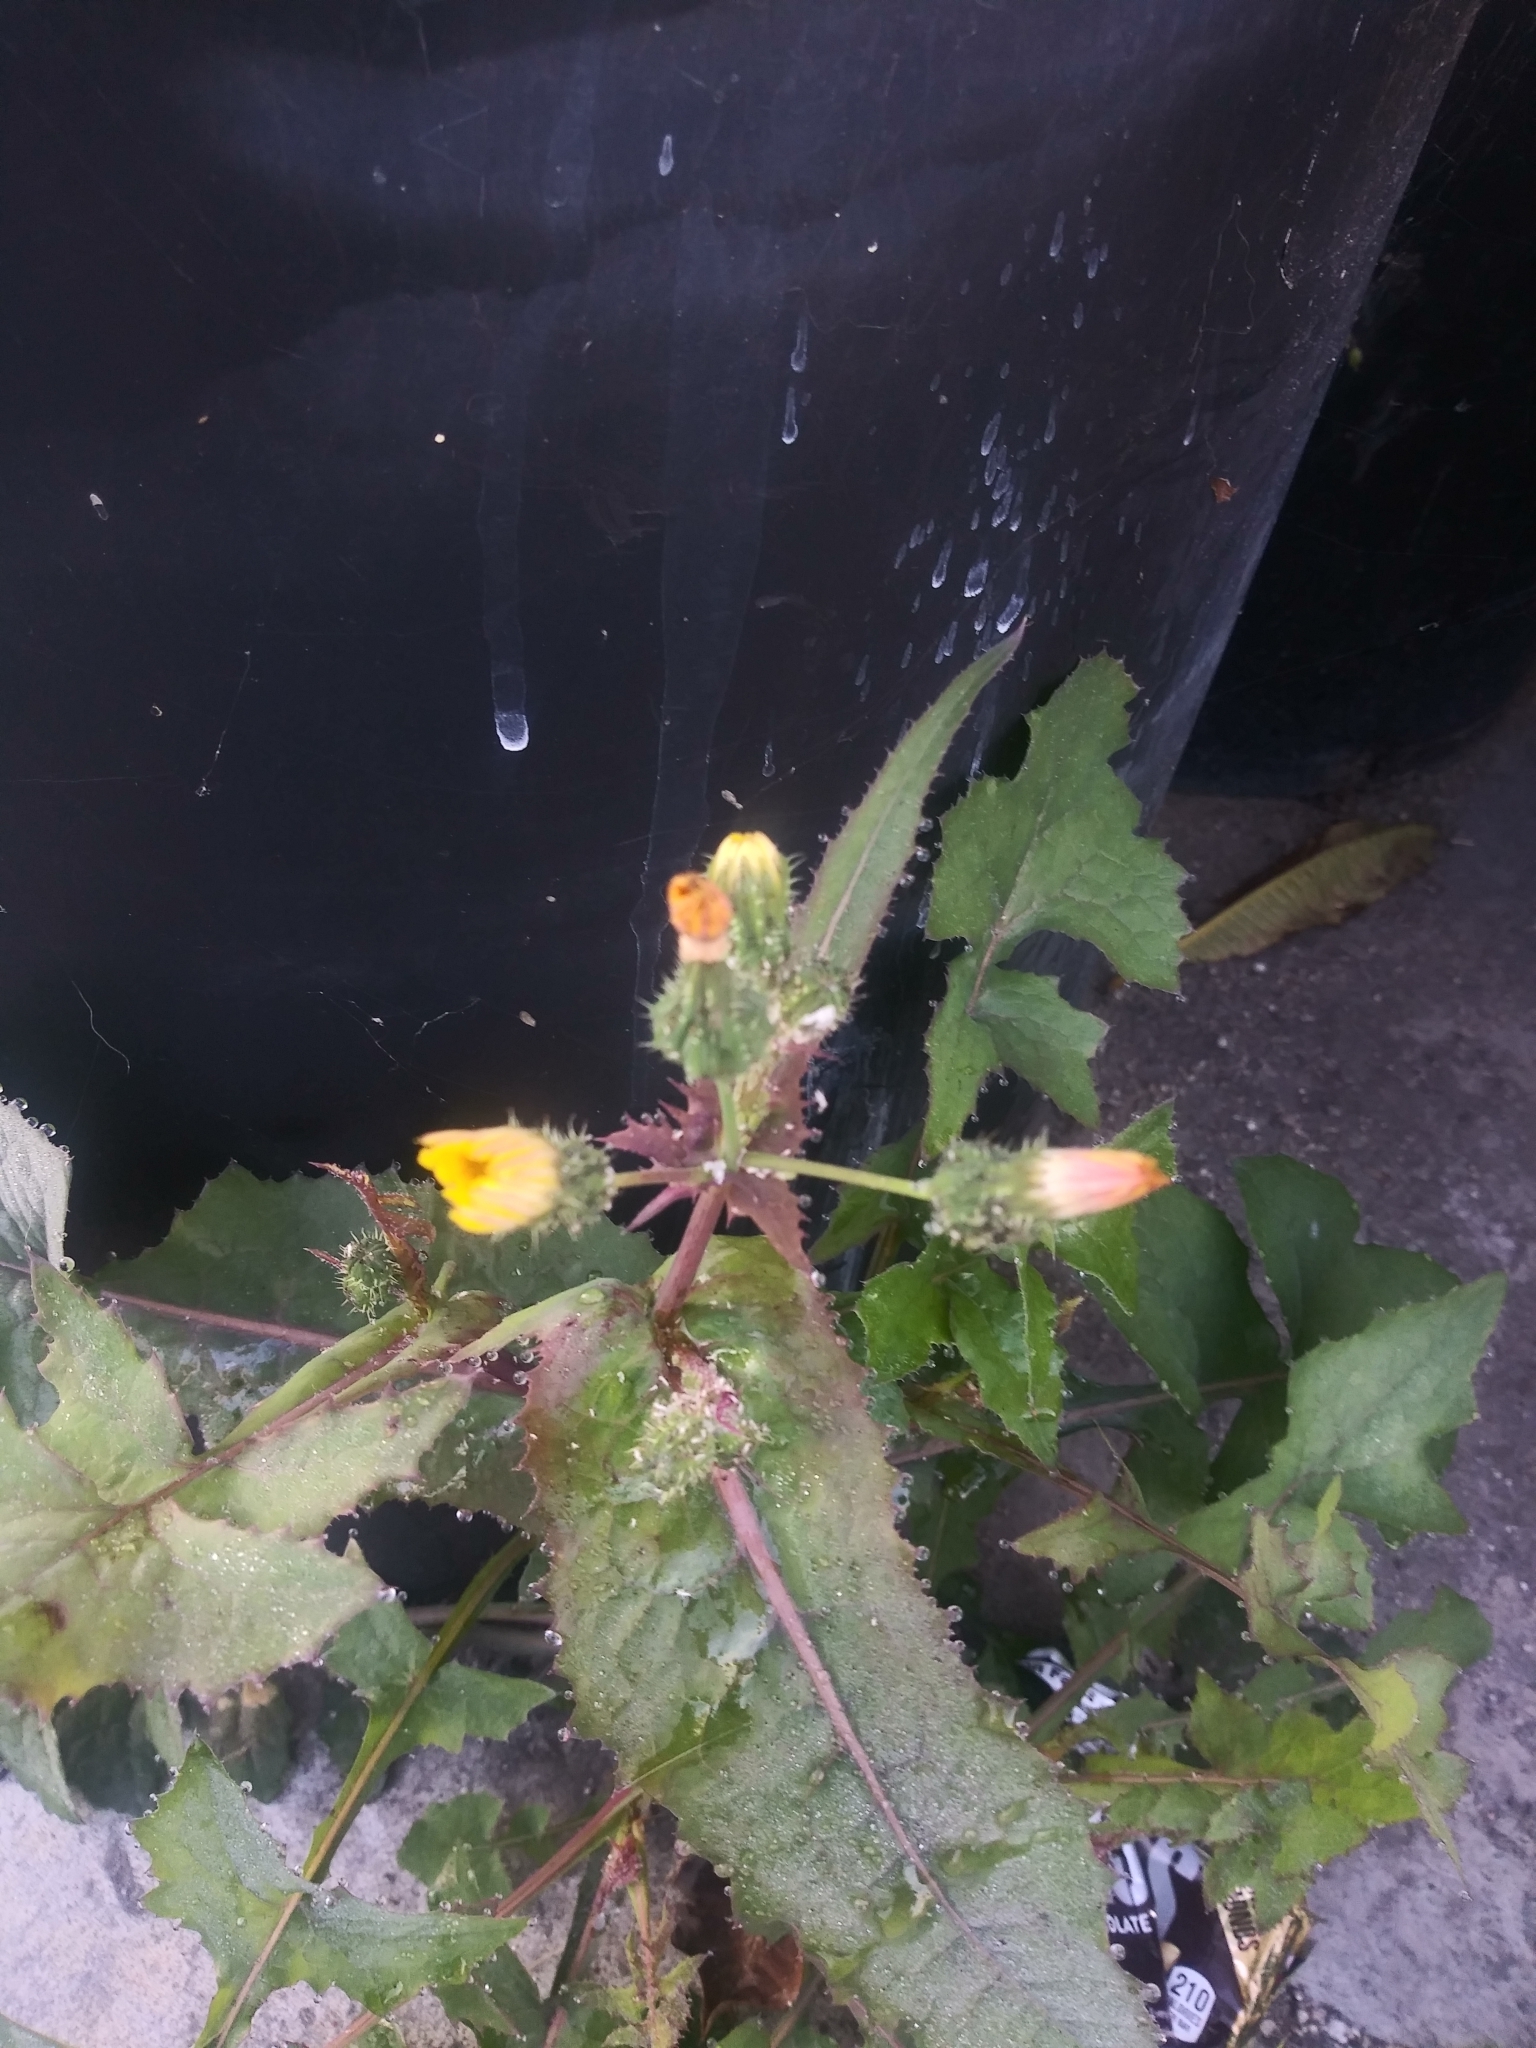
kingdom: Plantae
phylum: Tracheophyta
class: Magnoliopsida
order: Asterales
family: Asteraceae
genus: Sonchus
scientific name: Sonchus oleraceus
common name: Common sowthistle
